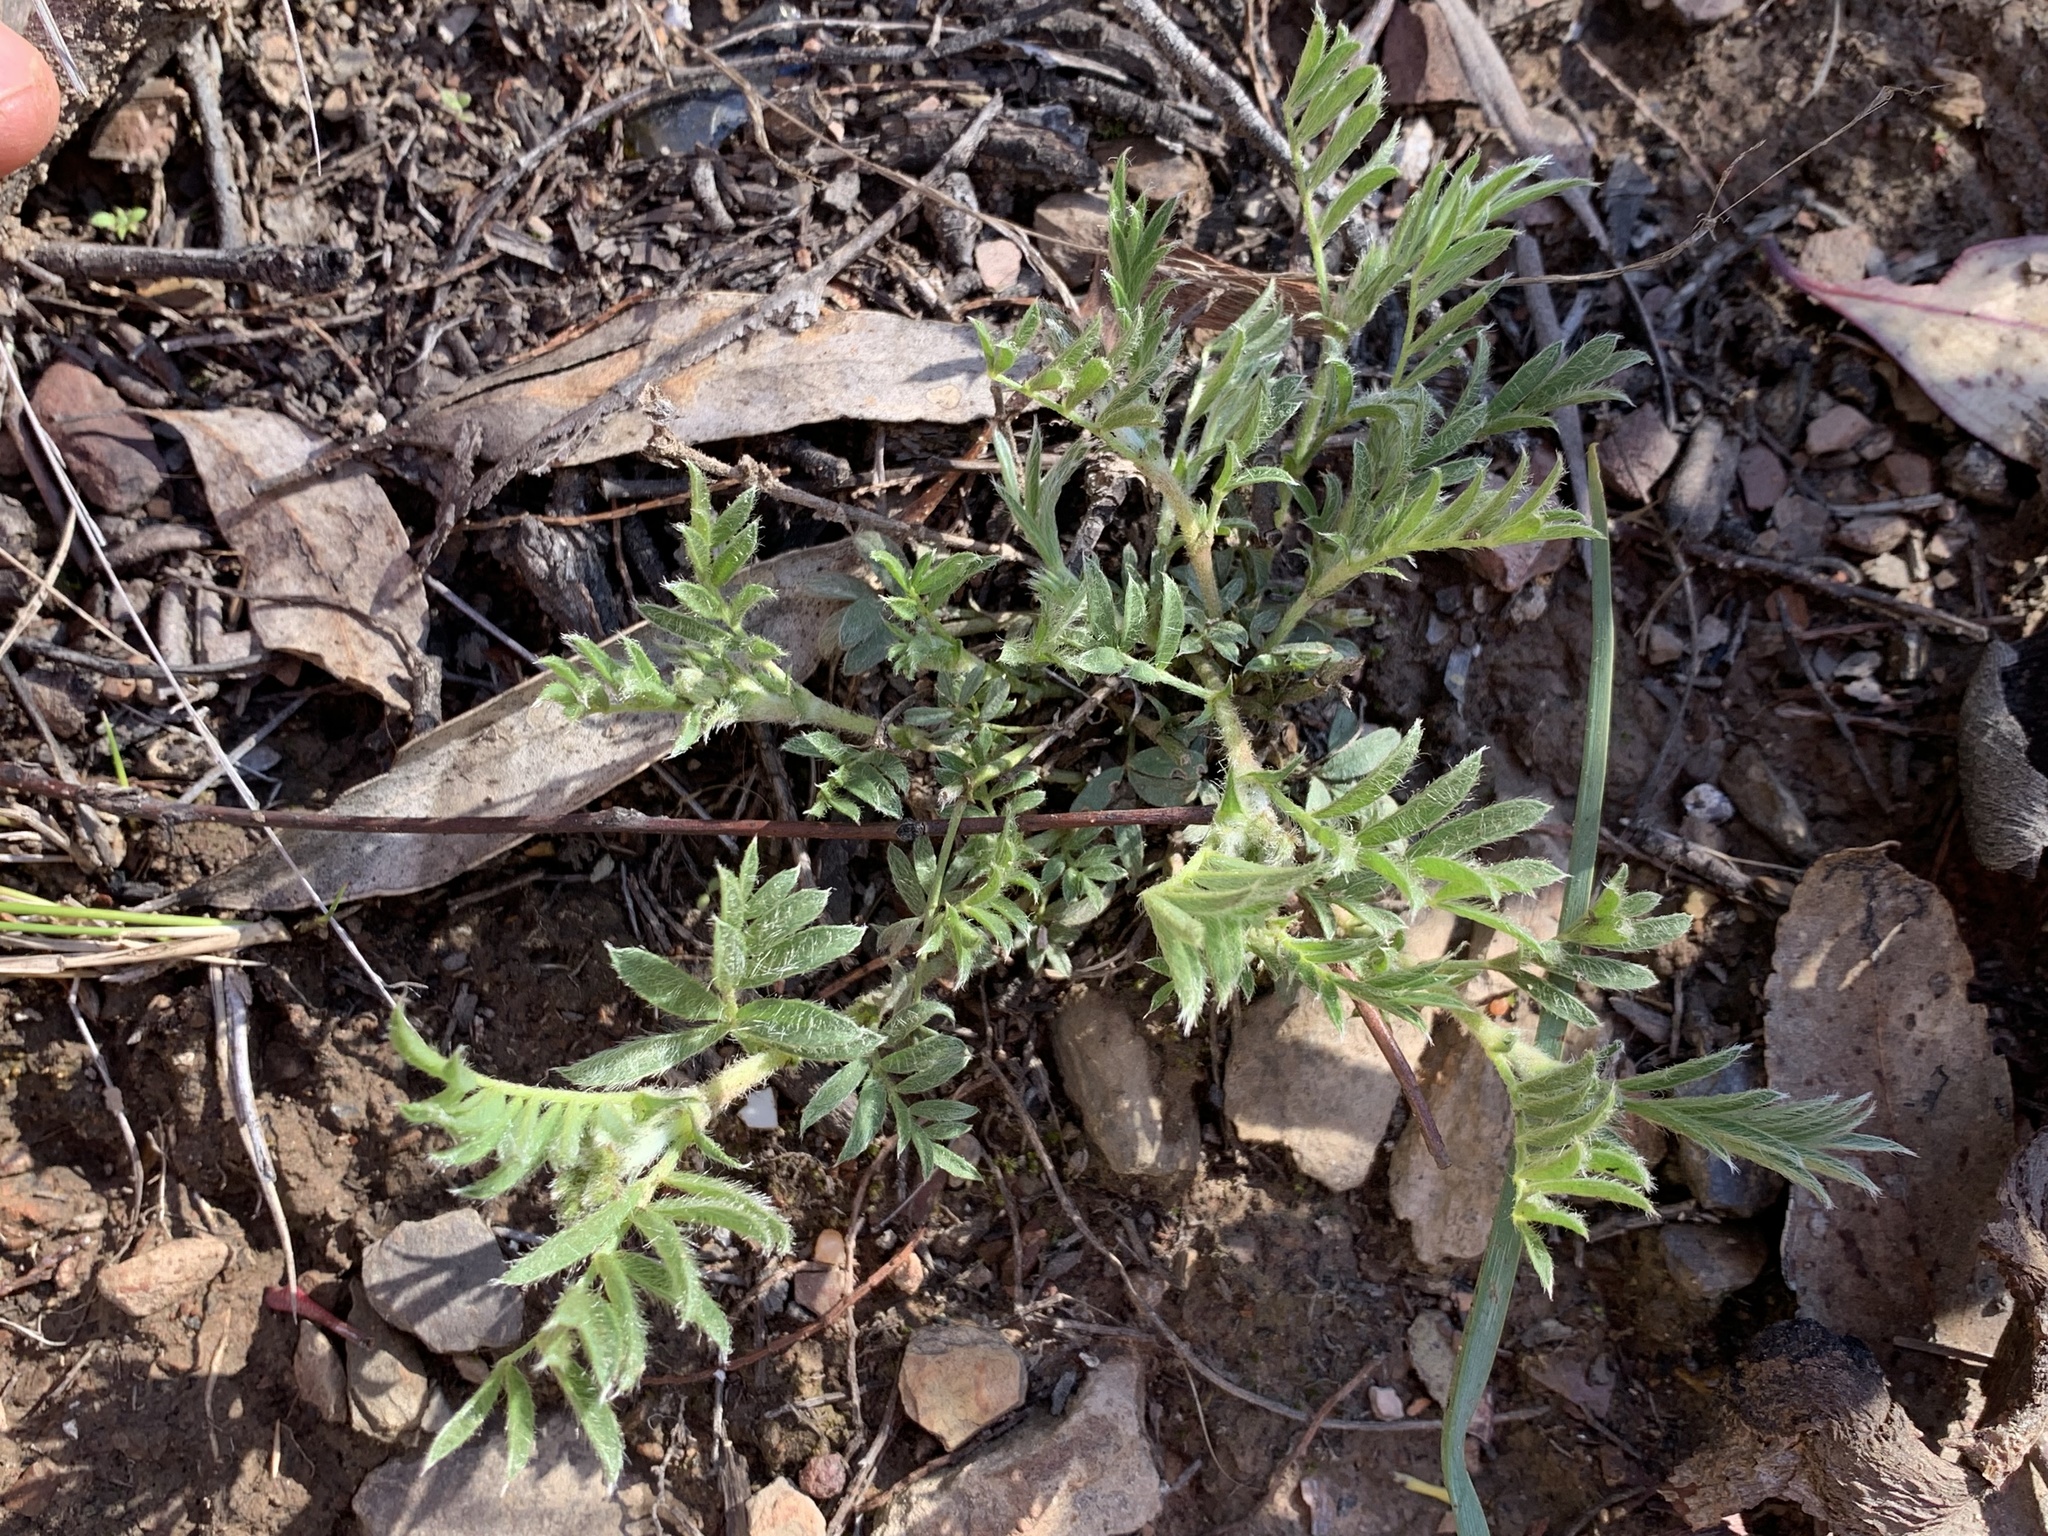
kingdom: Plantae
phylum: Tracheophyta
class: Magnoliopsida
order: Fabales
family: Fabaceae
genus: Swainsona
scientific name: Swainsona sericea
